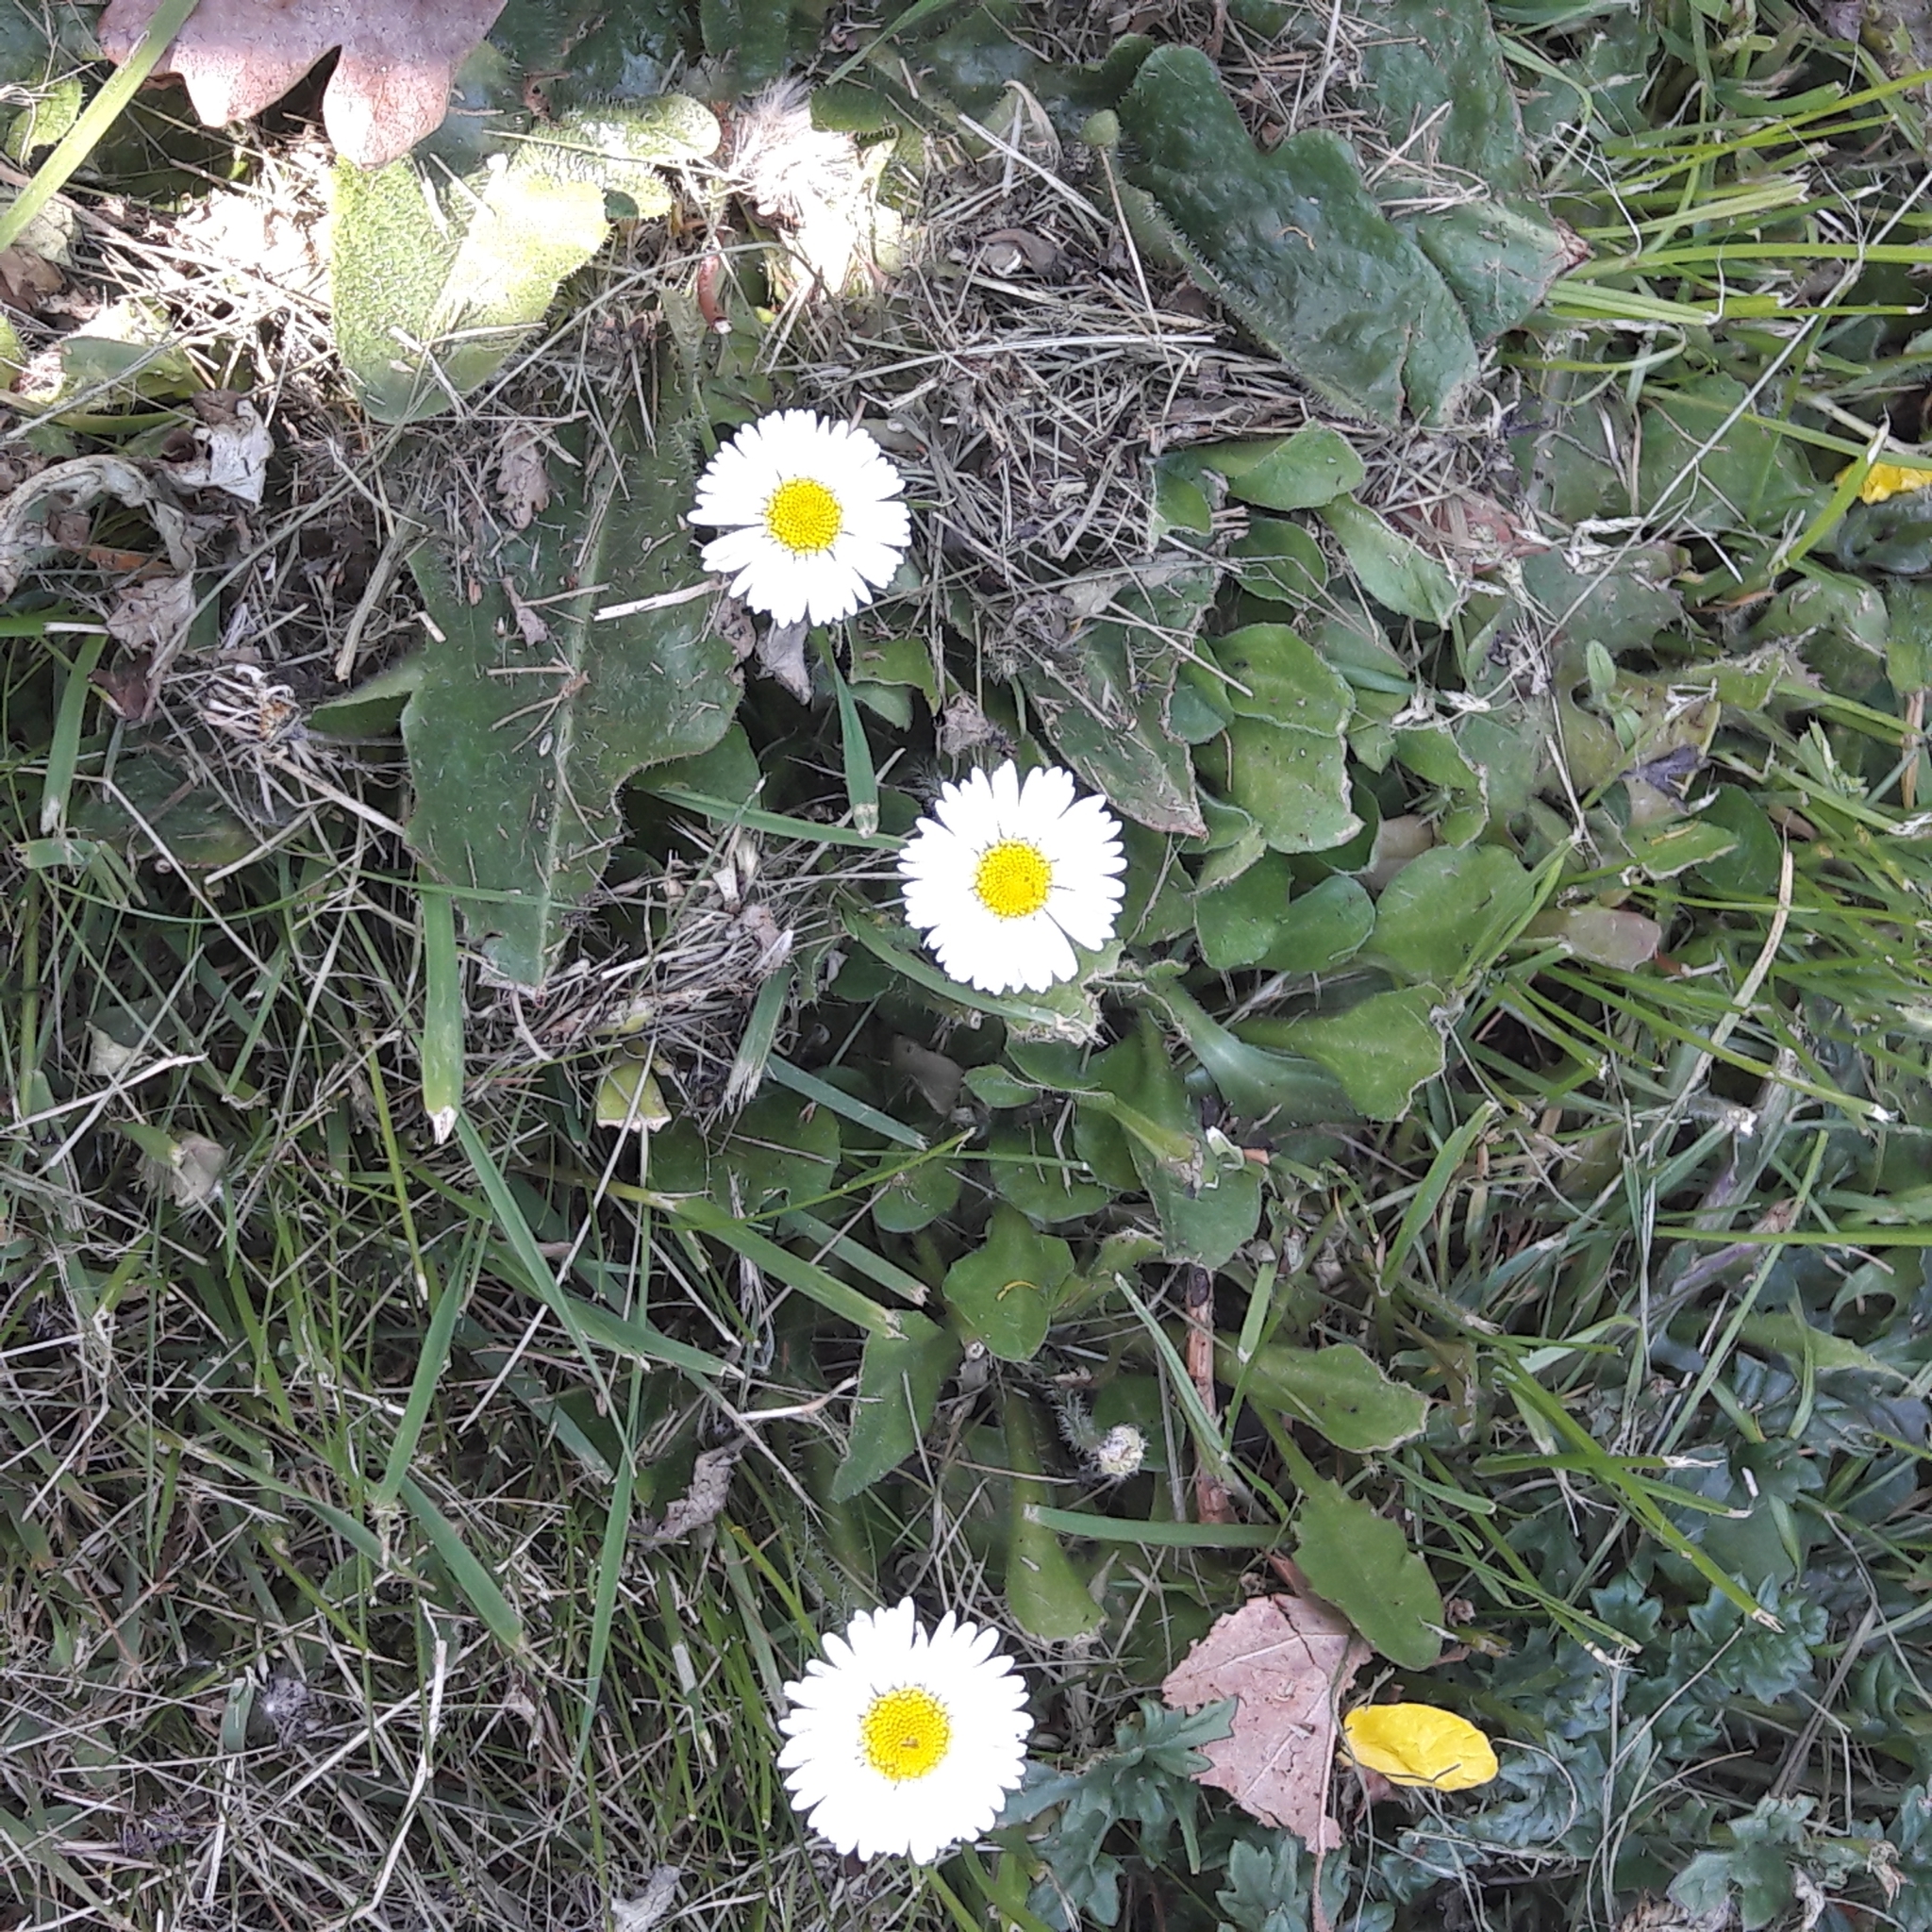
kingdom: Plantae
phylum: Tracheophyta
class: Magnoliopsida
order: Asterales
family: Asteraceae
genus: Bellis
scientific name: Bellis perennis
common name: Lawndaisy
